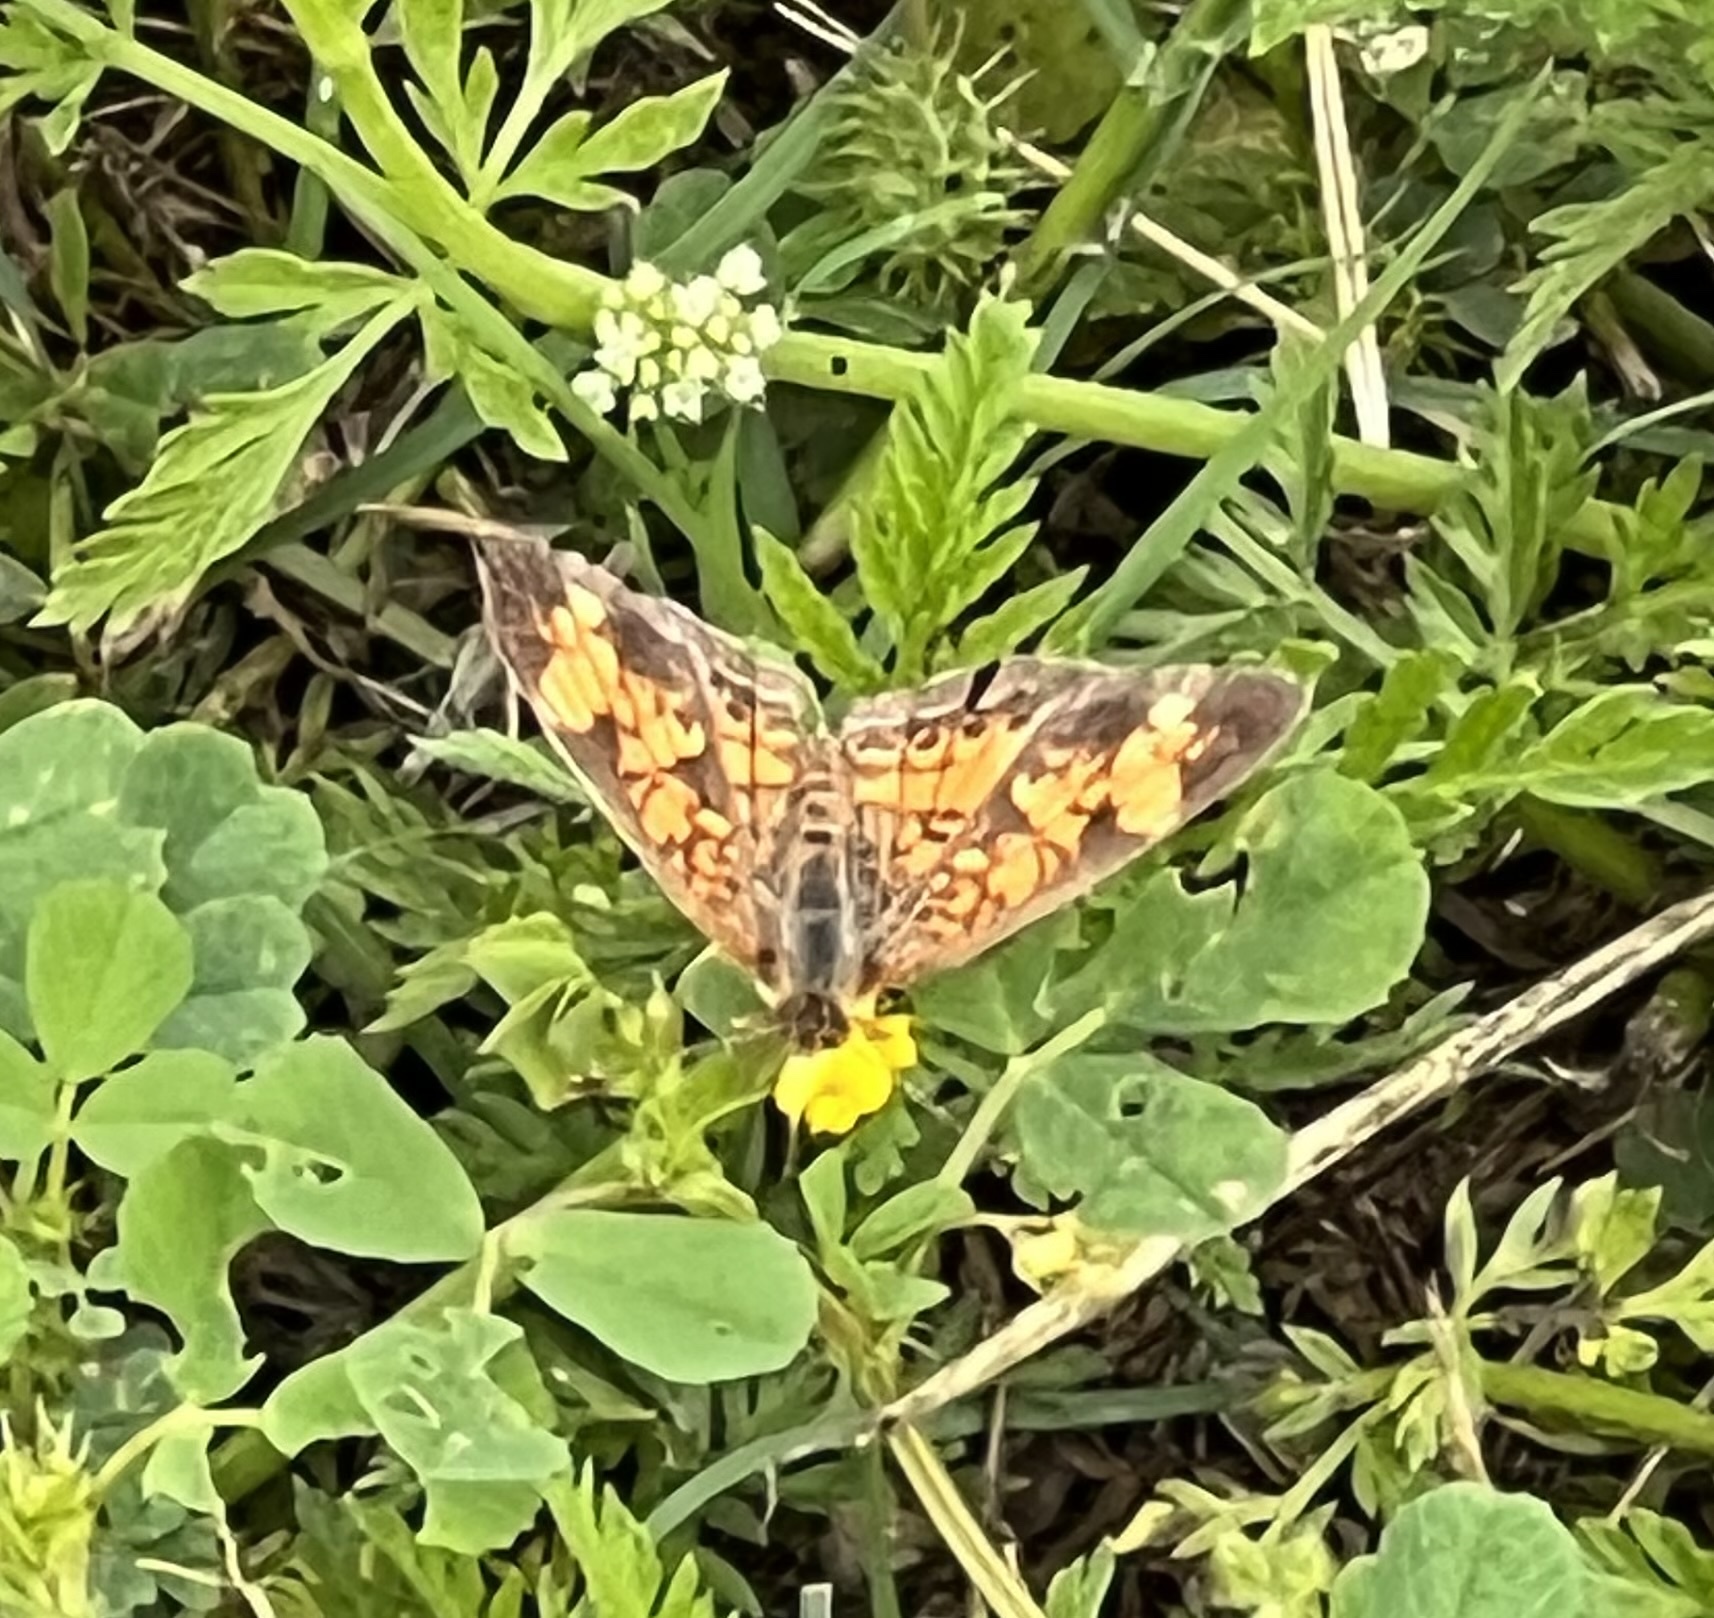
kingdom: Animalia
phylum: Arthropoda
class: Insecta
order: Lepidoptera
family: Nymphalidae
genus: Phyciodes
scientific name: Phyciodes tharos
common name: Pearl crescent
